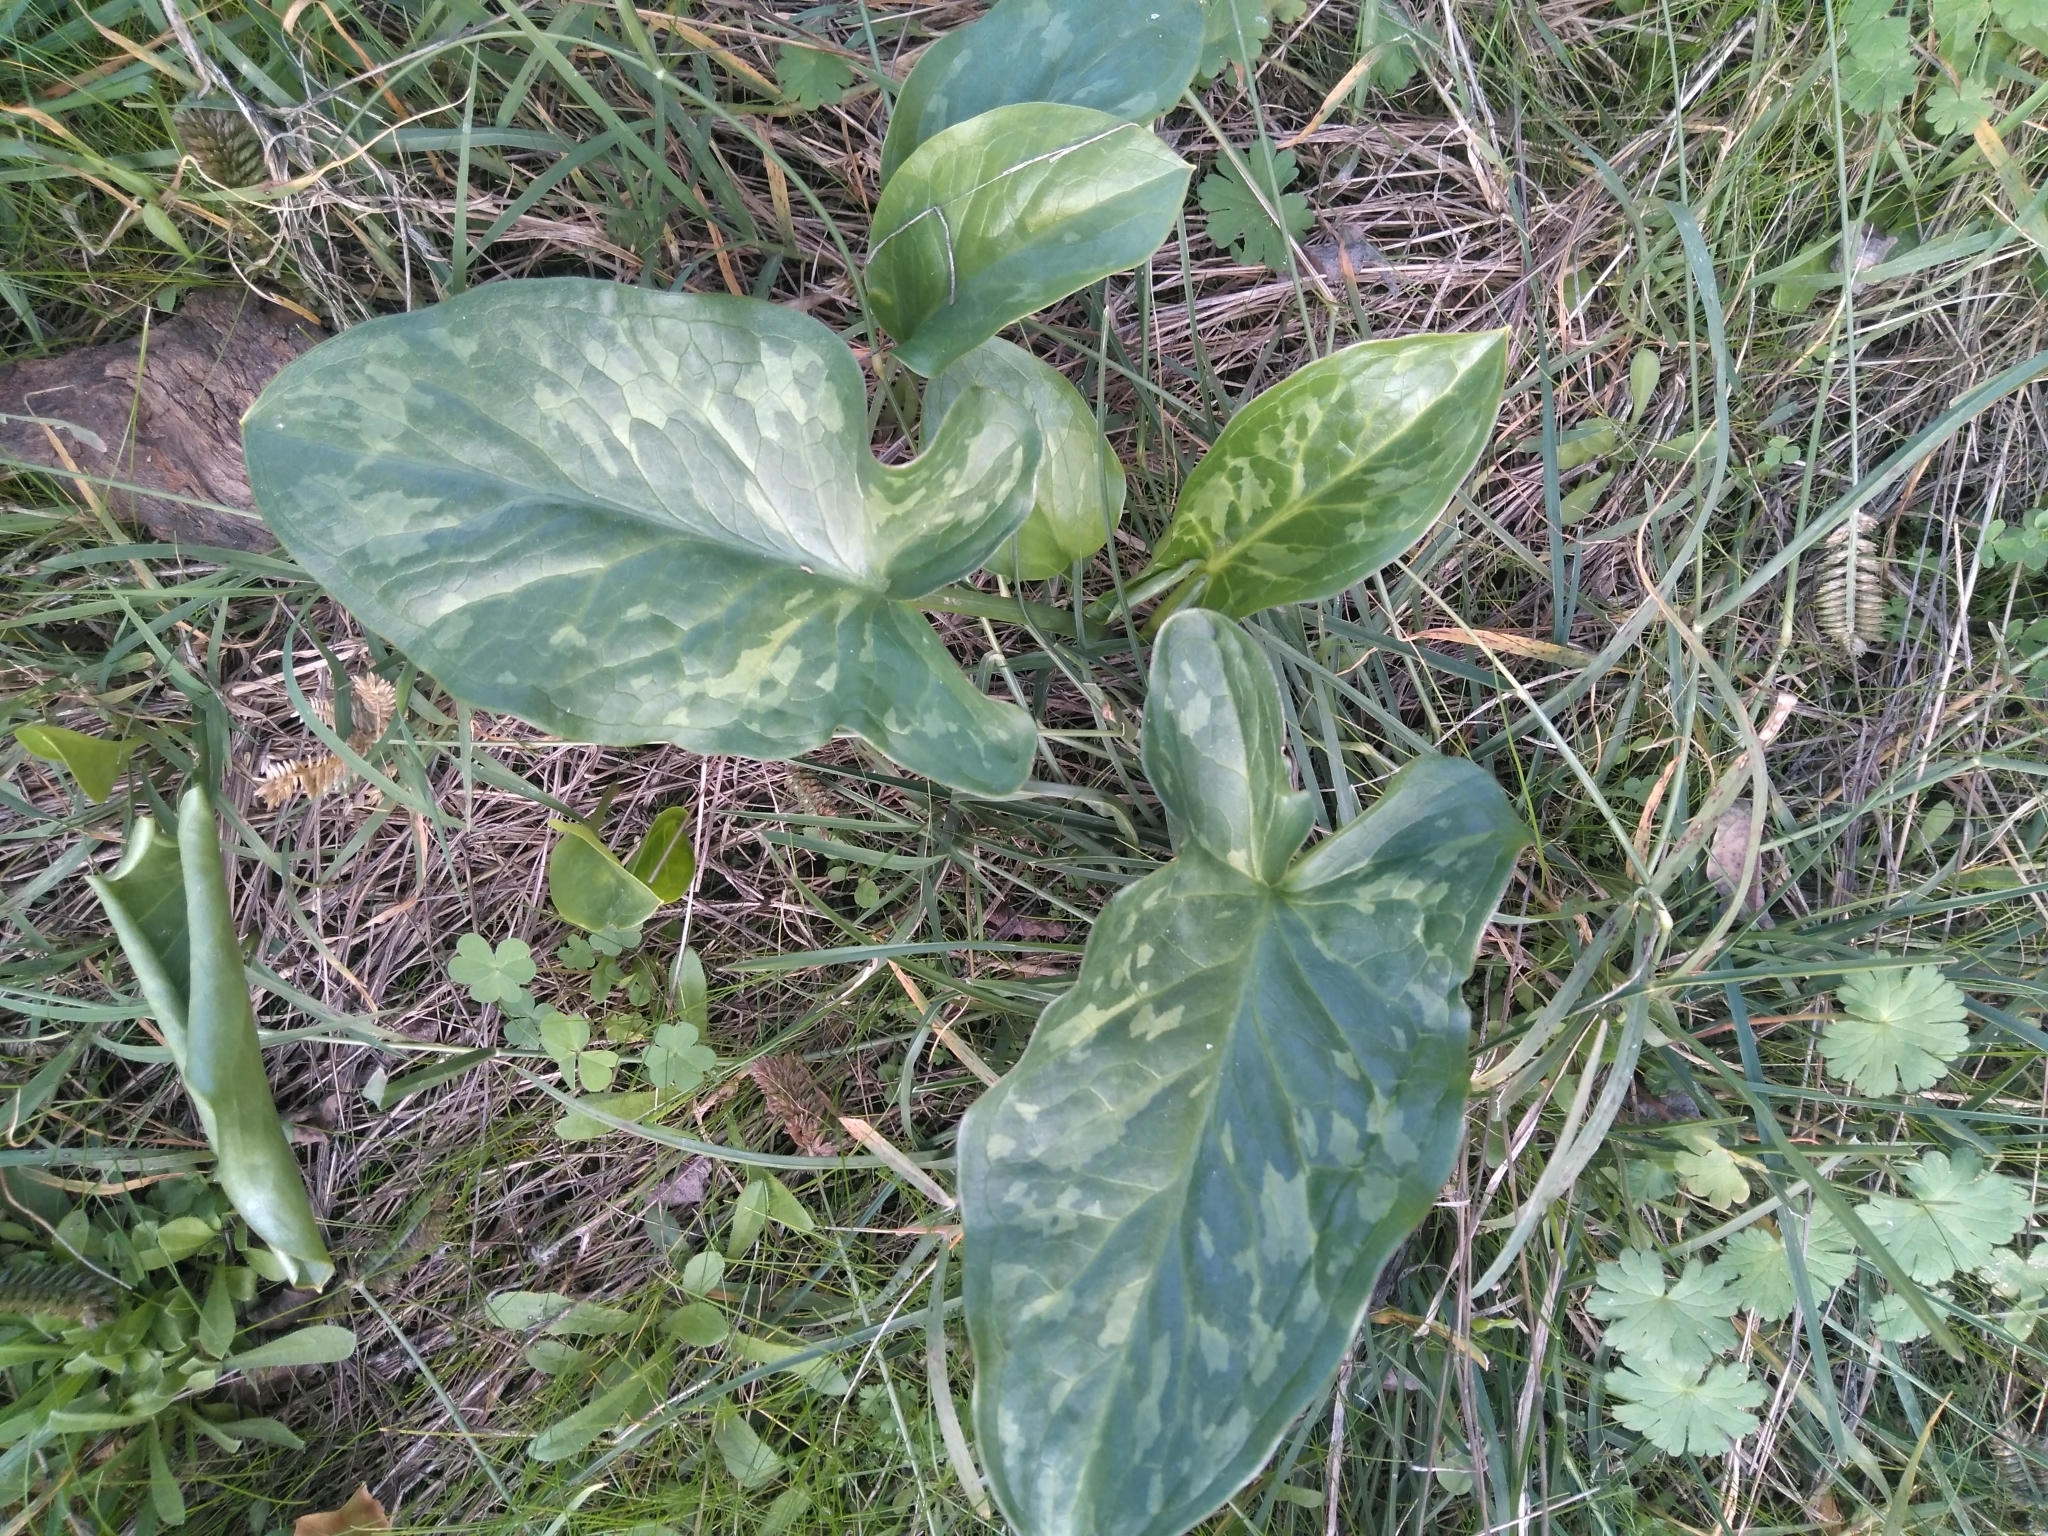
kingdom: Plantae
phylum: Tracheophyta
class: Liliopsida
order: Alismatales
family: Araceae
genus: Arum
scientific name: Arum italicum
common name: Italian lords-and-ladies
